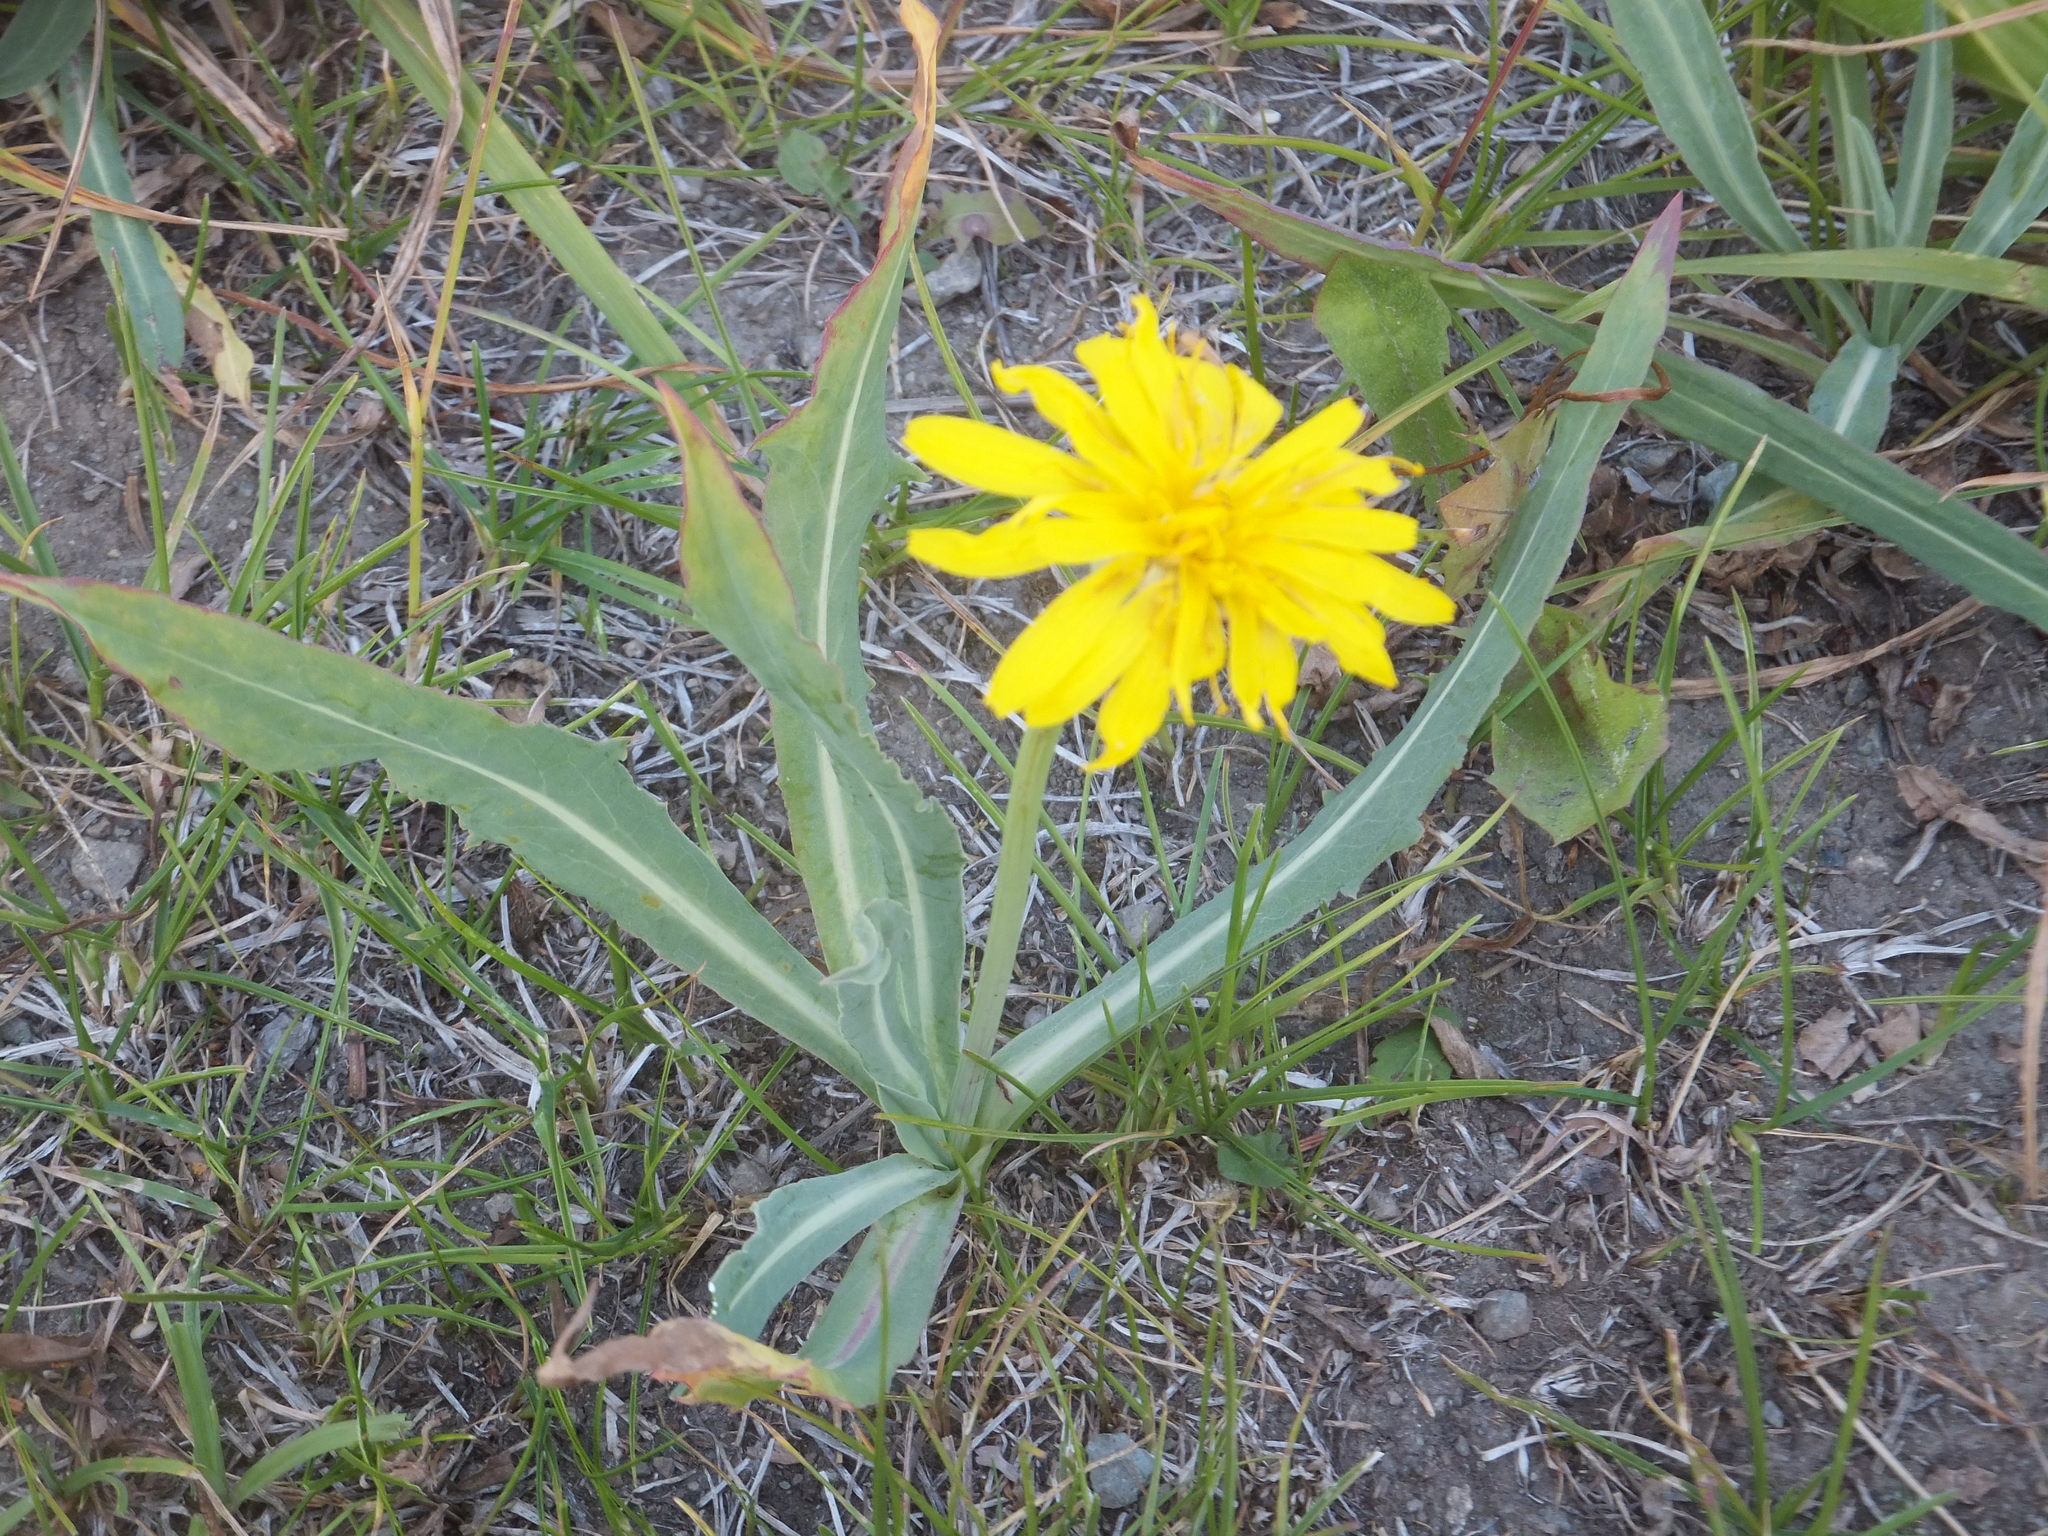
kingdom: Plantae
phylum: Tracheophyta
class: Magnoliopsida
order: Asterales
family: Asteraceae
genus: Microseris
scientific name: Microseris troximoides
